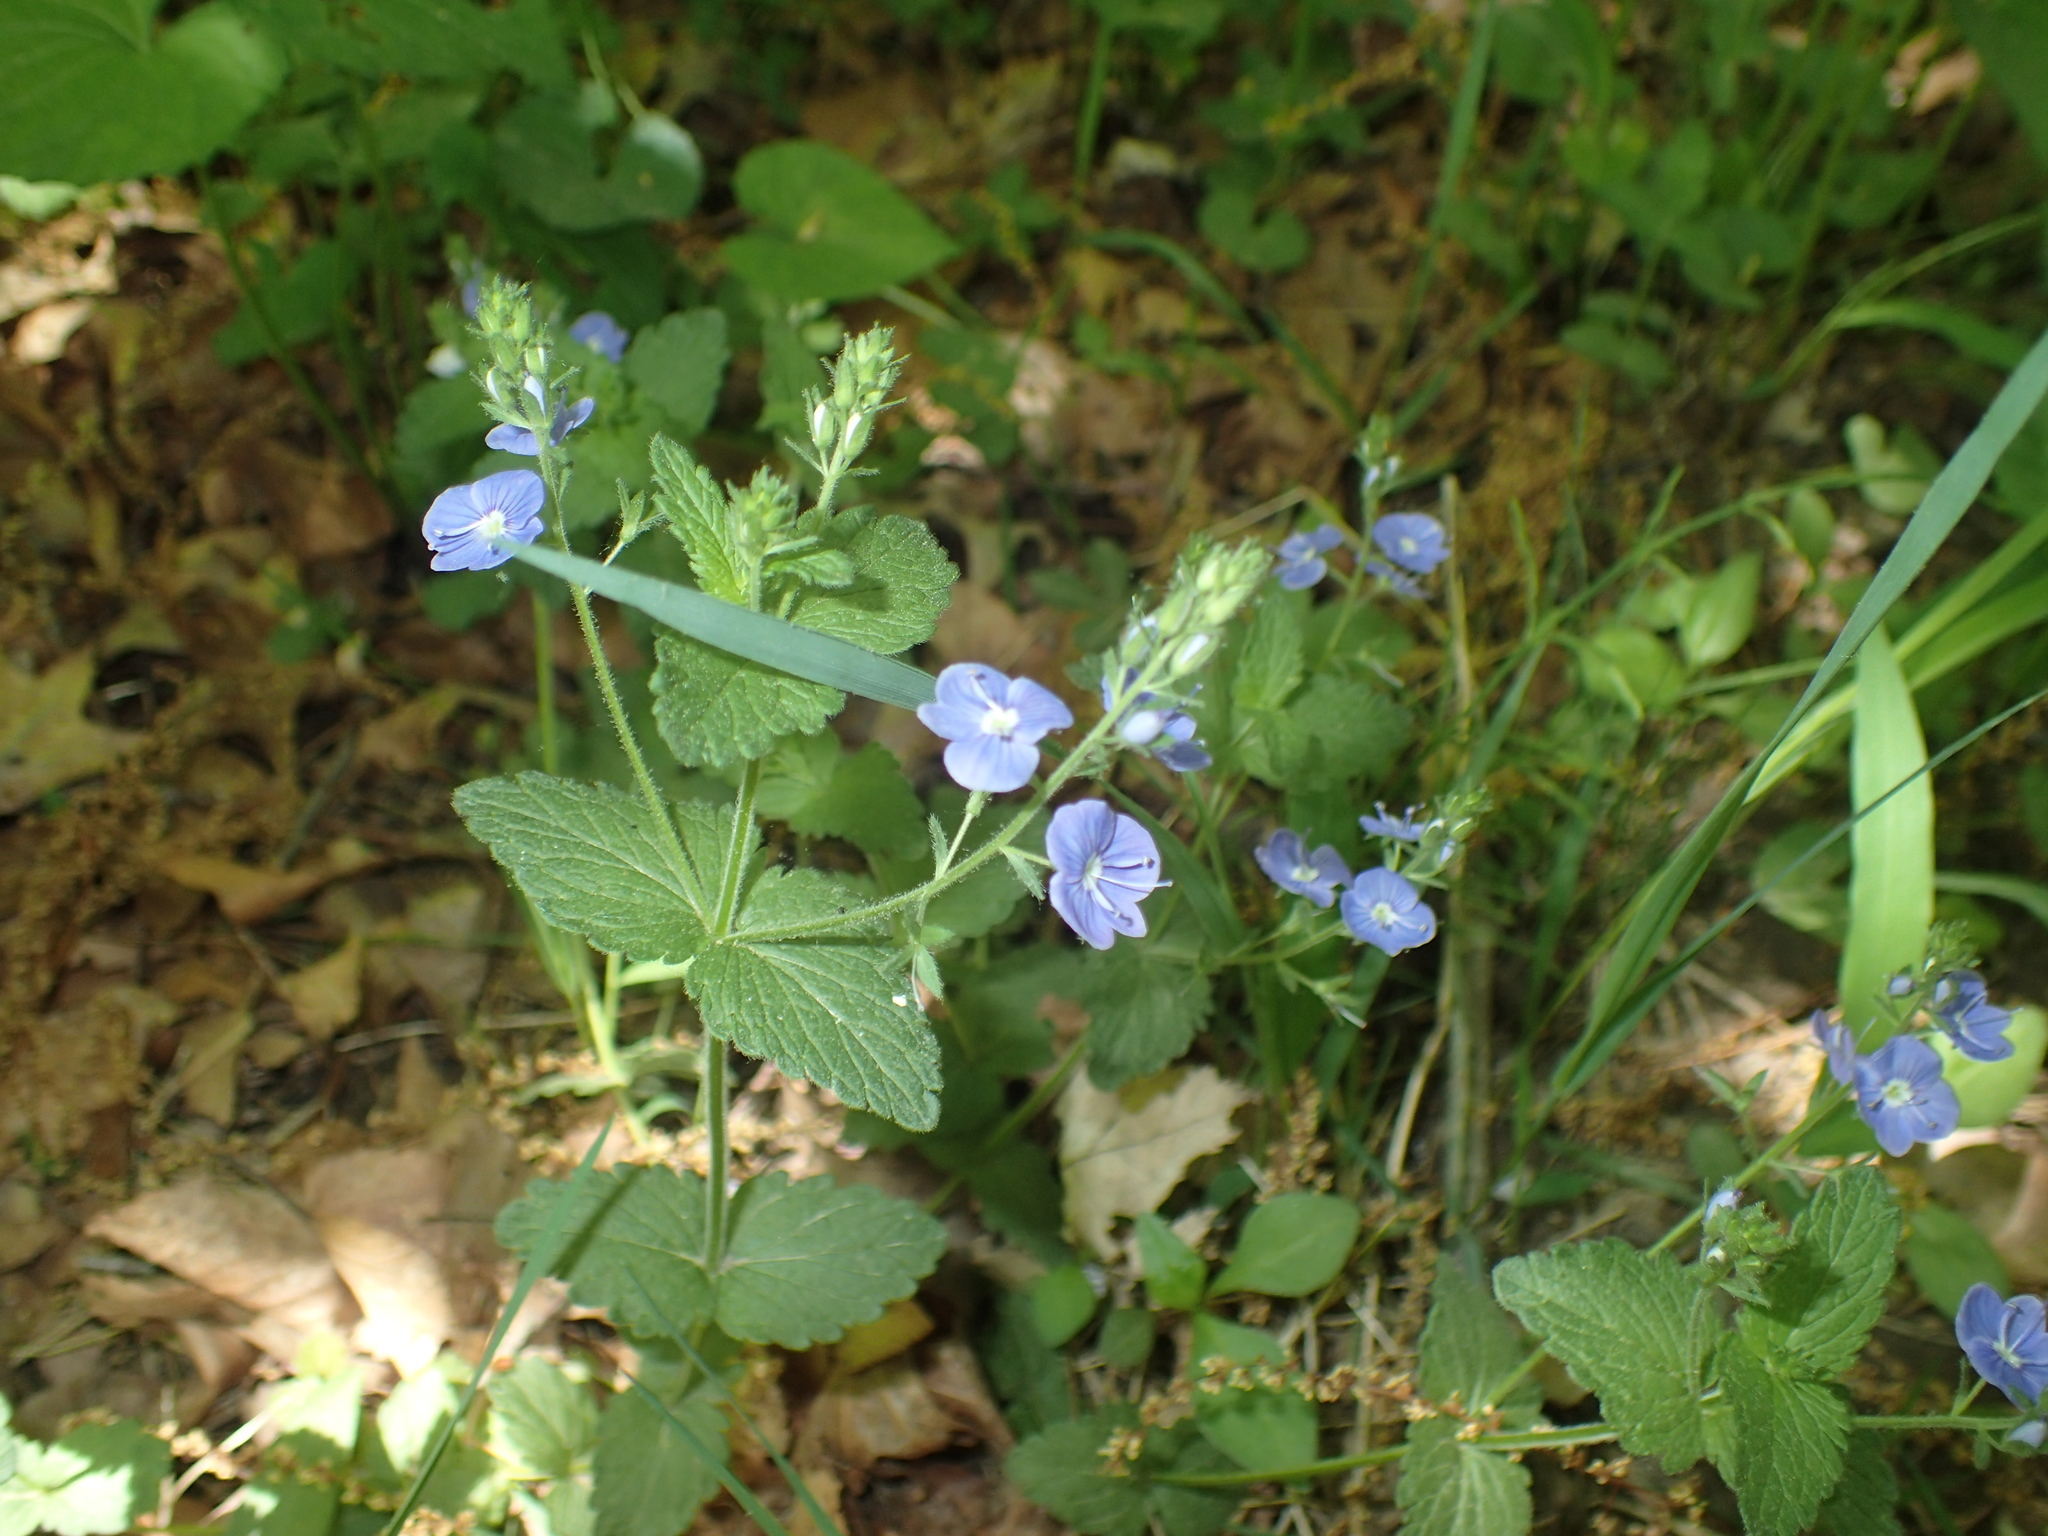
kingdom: Plantae
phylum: Tracheophyta
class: Magnoliopsida
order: Lamiales
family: Plantaginaceae
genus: Veronica
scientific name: Veronica chamaedrys
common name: Germander speedwell
